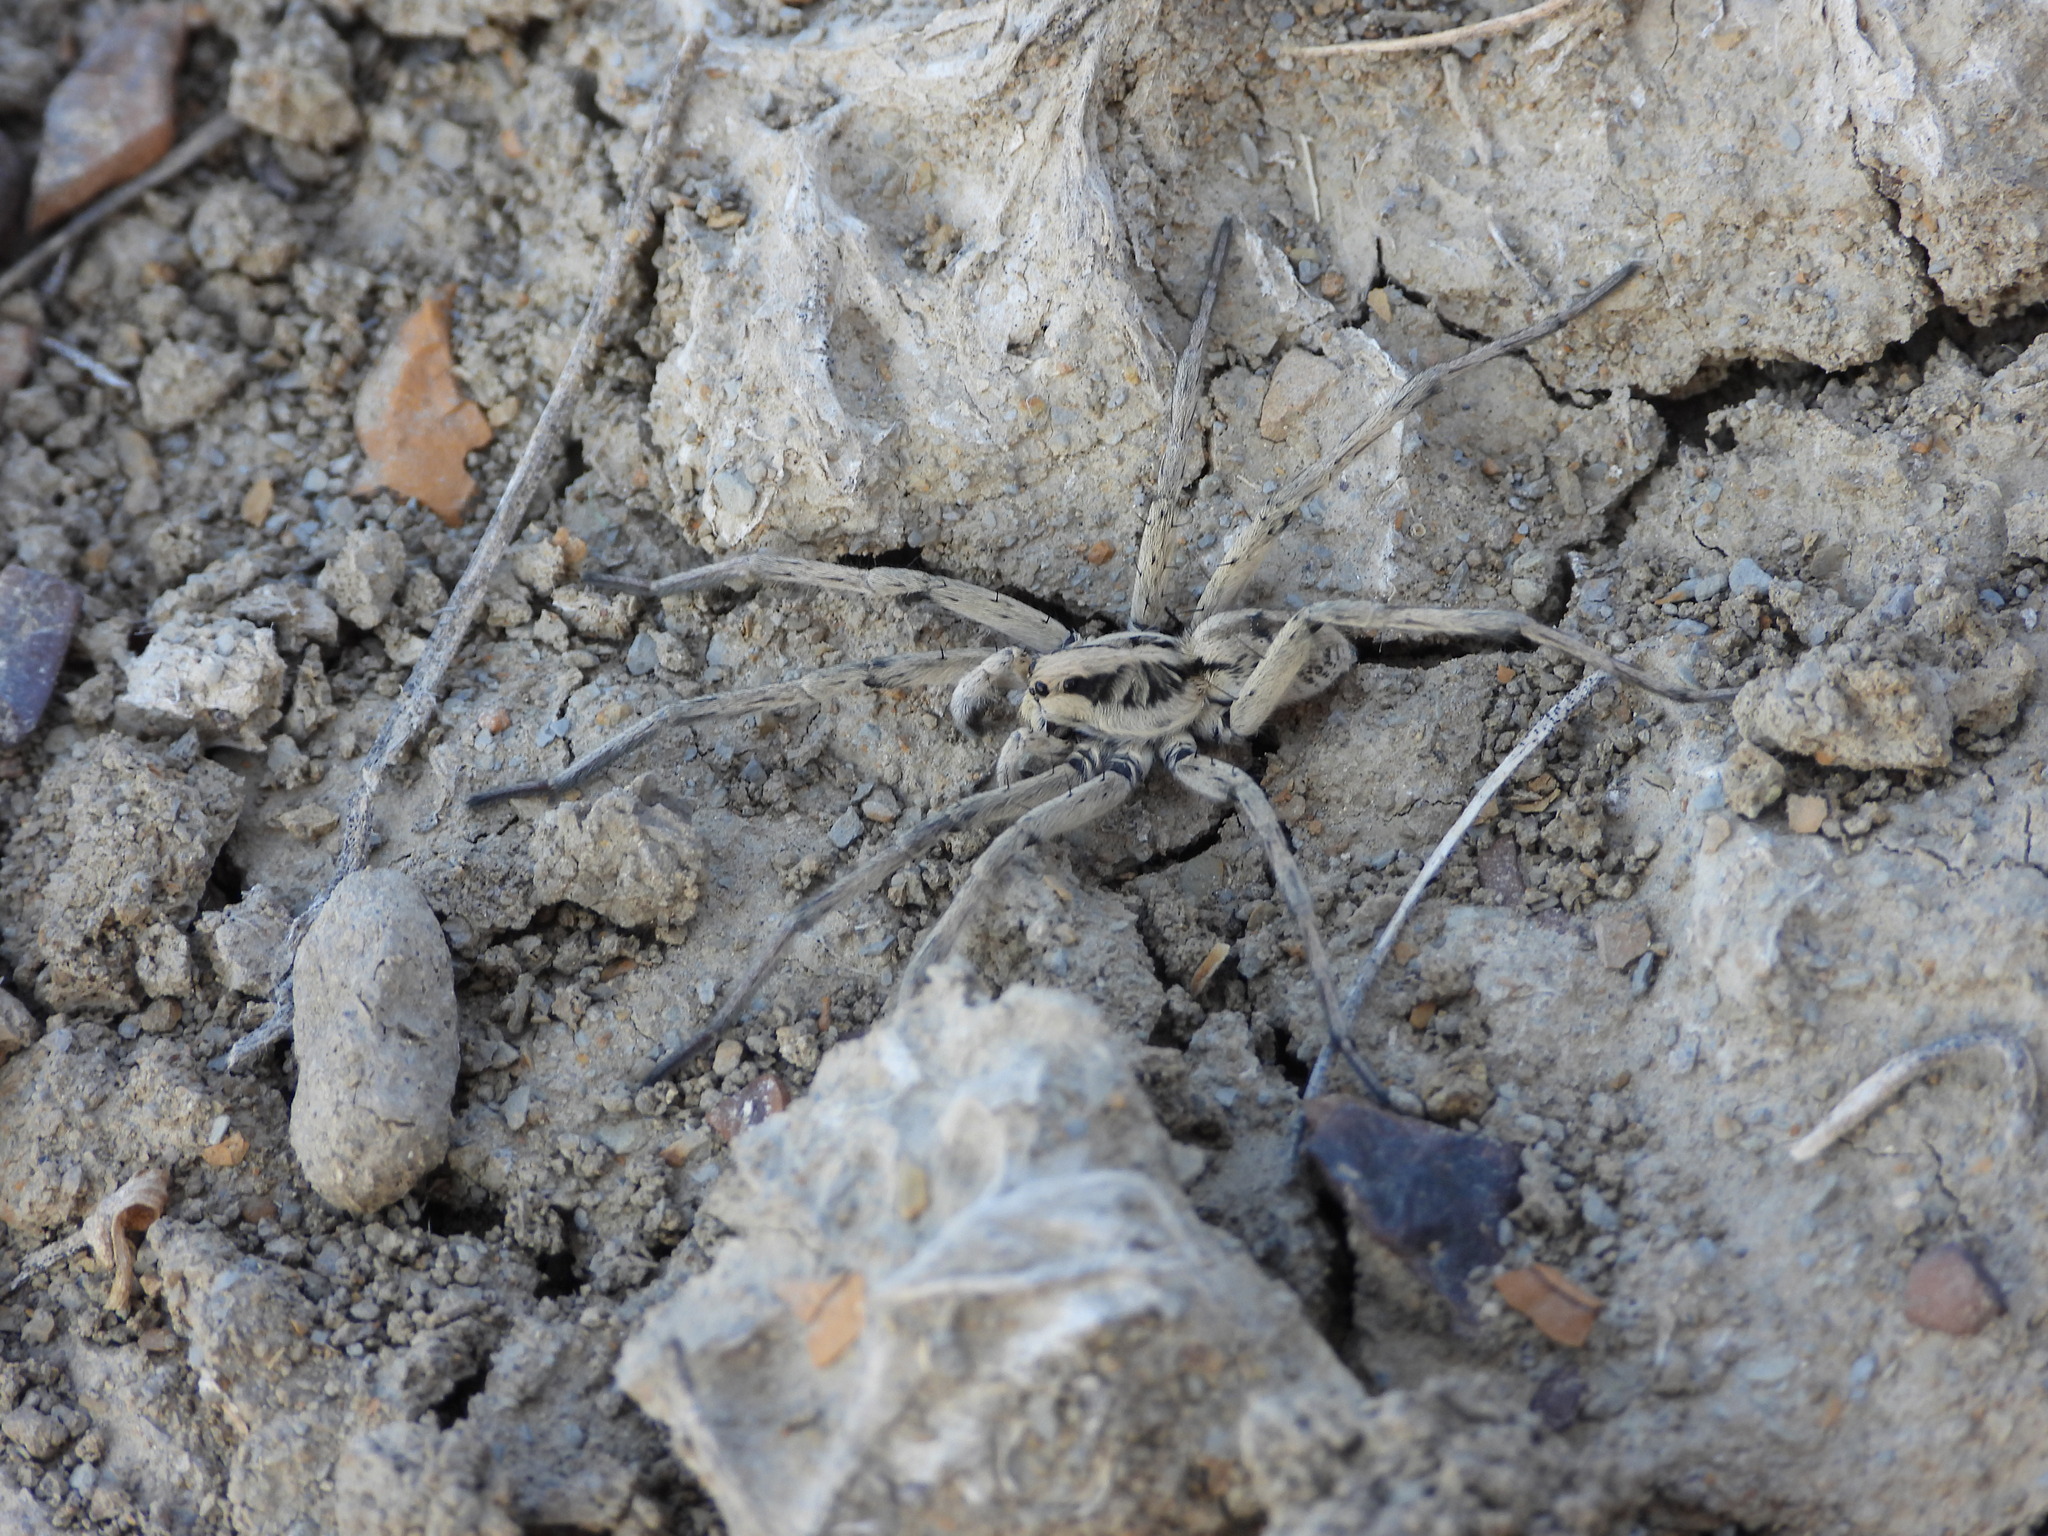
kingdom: Animalia
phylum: Arthropoda
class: Arachnida
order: Araneae
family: Lycosidae
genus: Hogna
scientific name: Hogna carolinensis
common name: Carolina wolf spider
